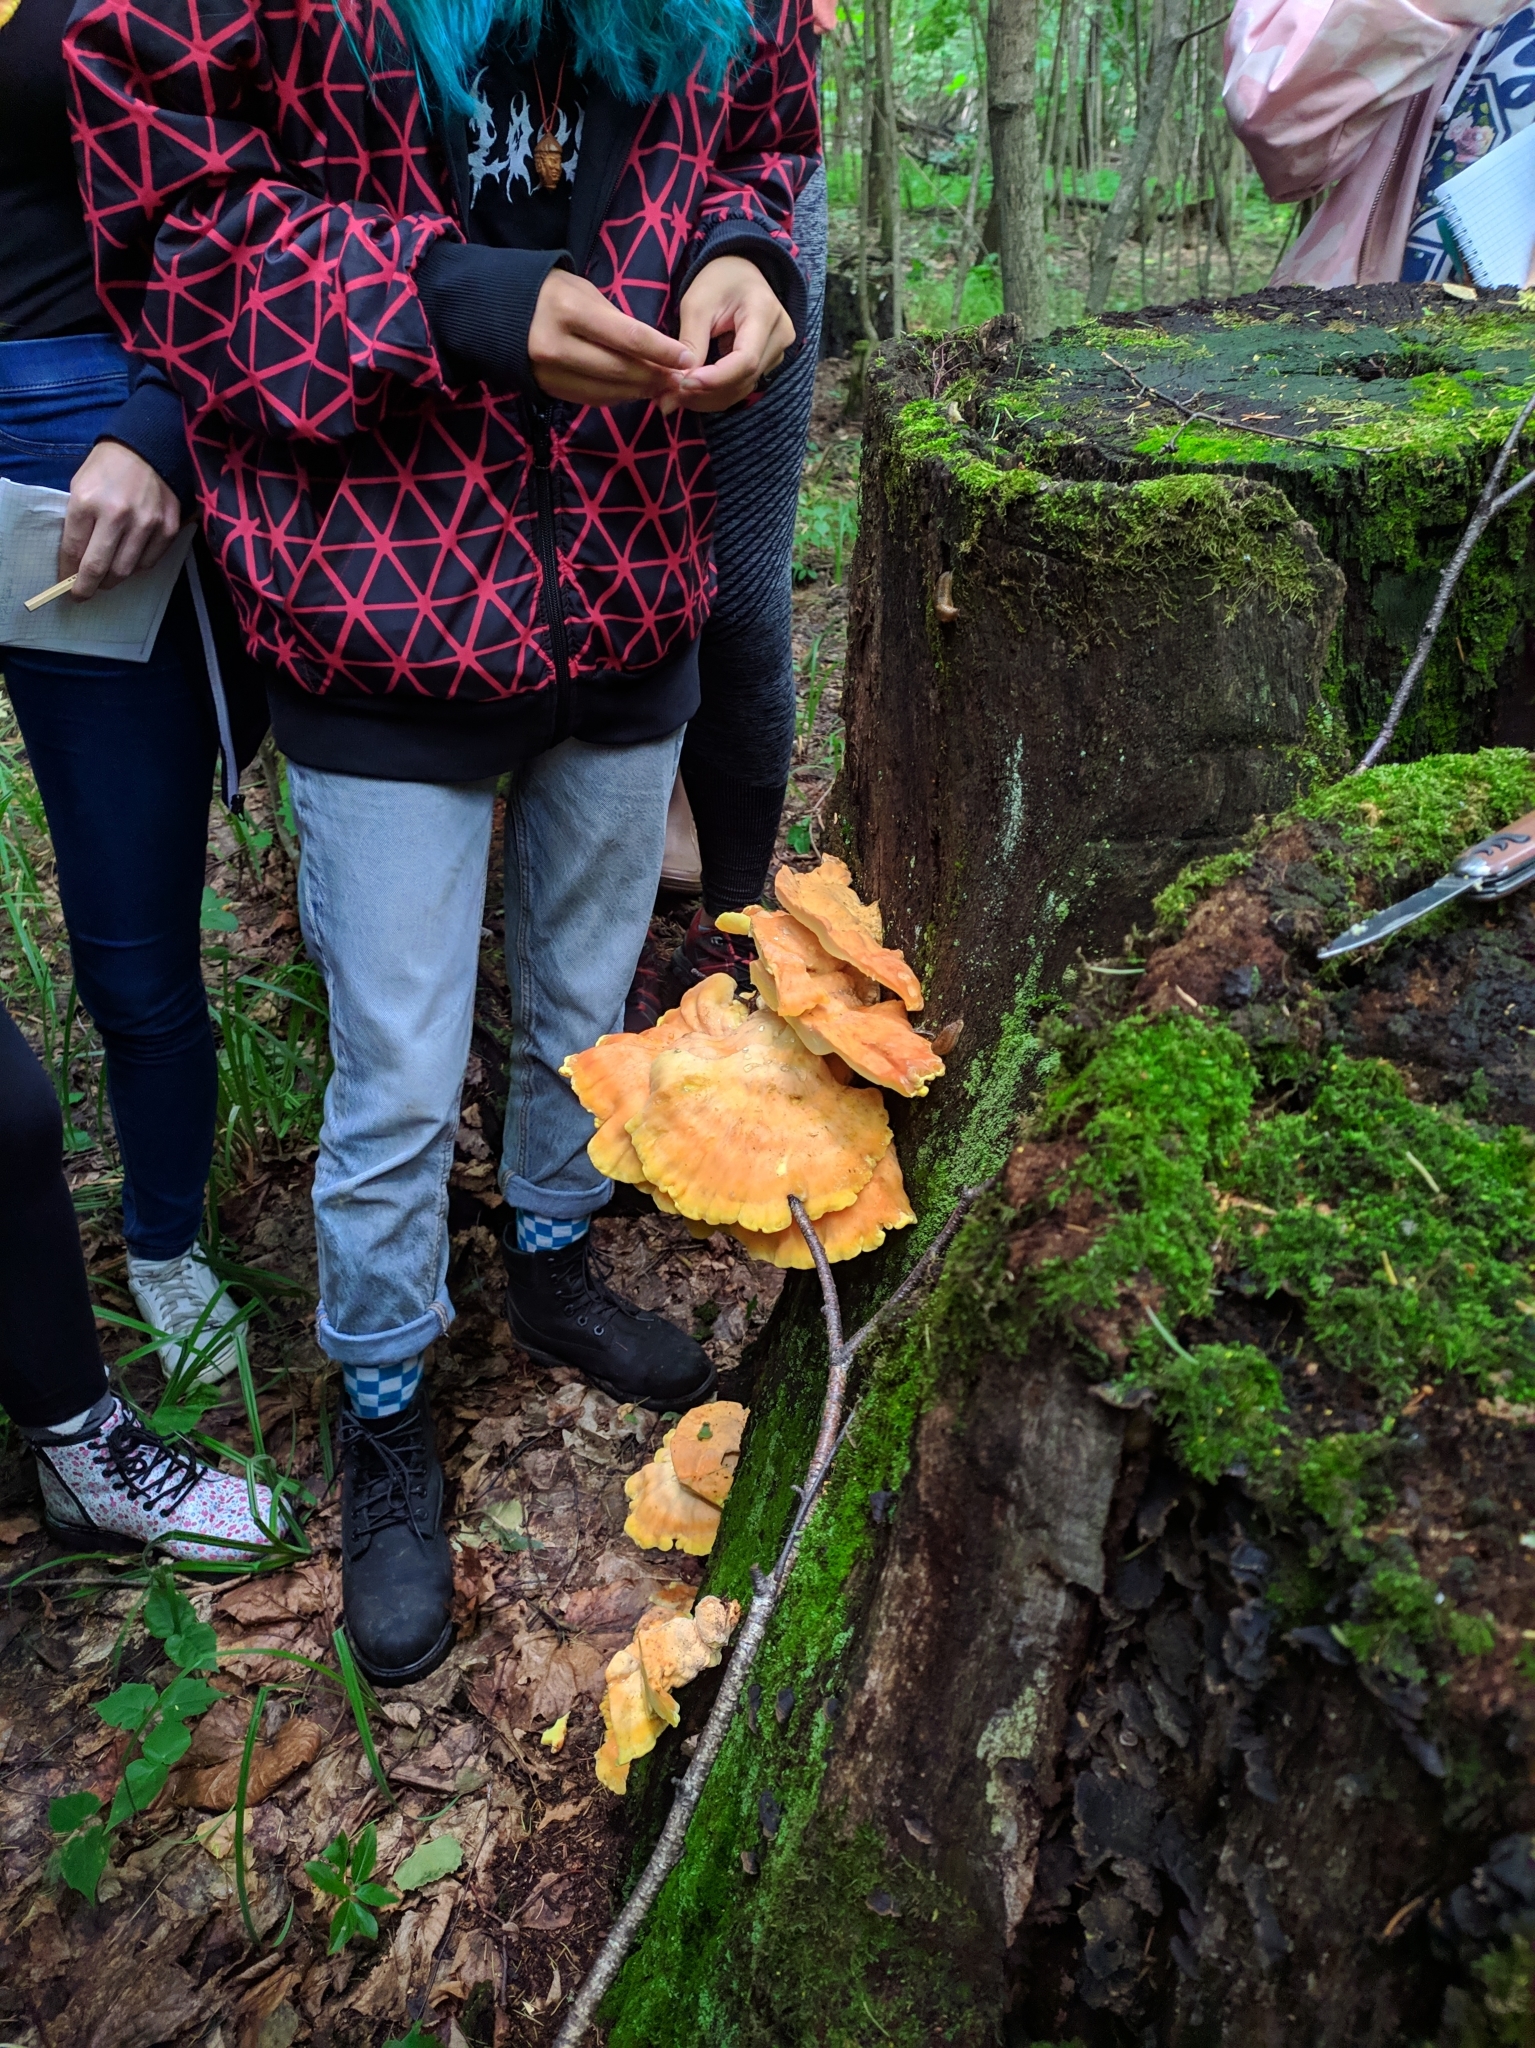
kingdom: Fungi
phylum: Basidiomycota
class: Agaricomycetes
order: Polyporales
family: Laetiporaceae
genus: Laetiporus
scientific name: Laetiporus sulphureus
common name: Chicken of the woods
